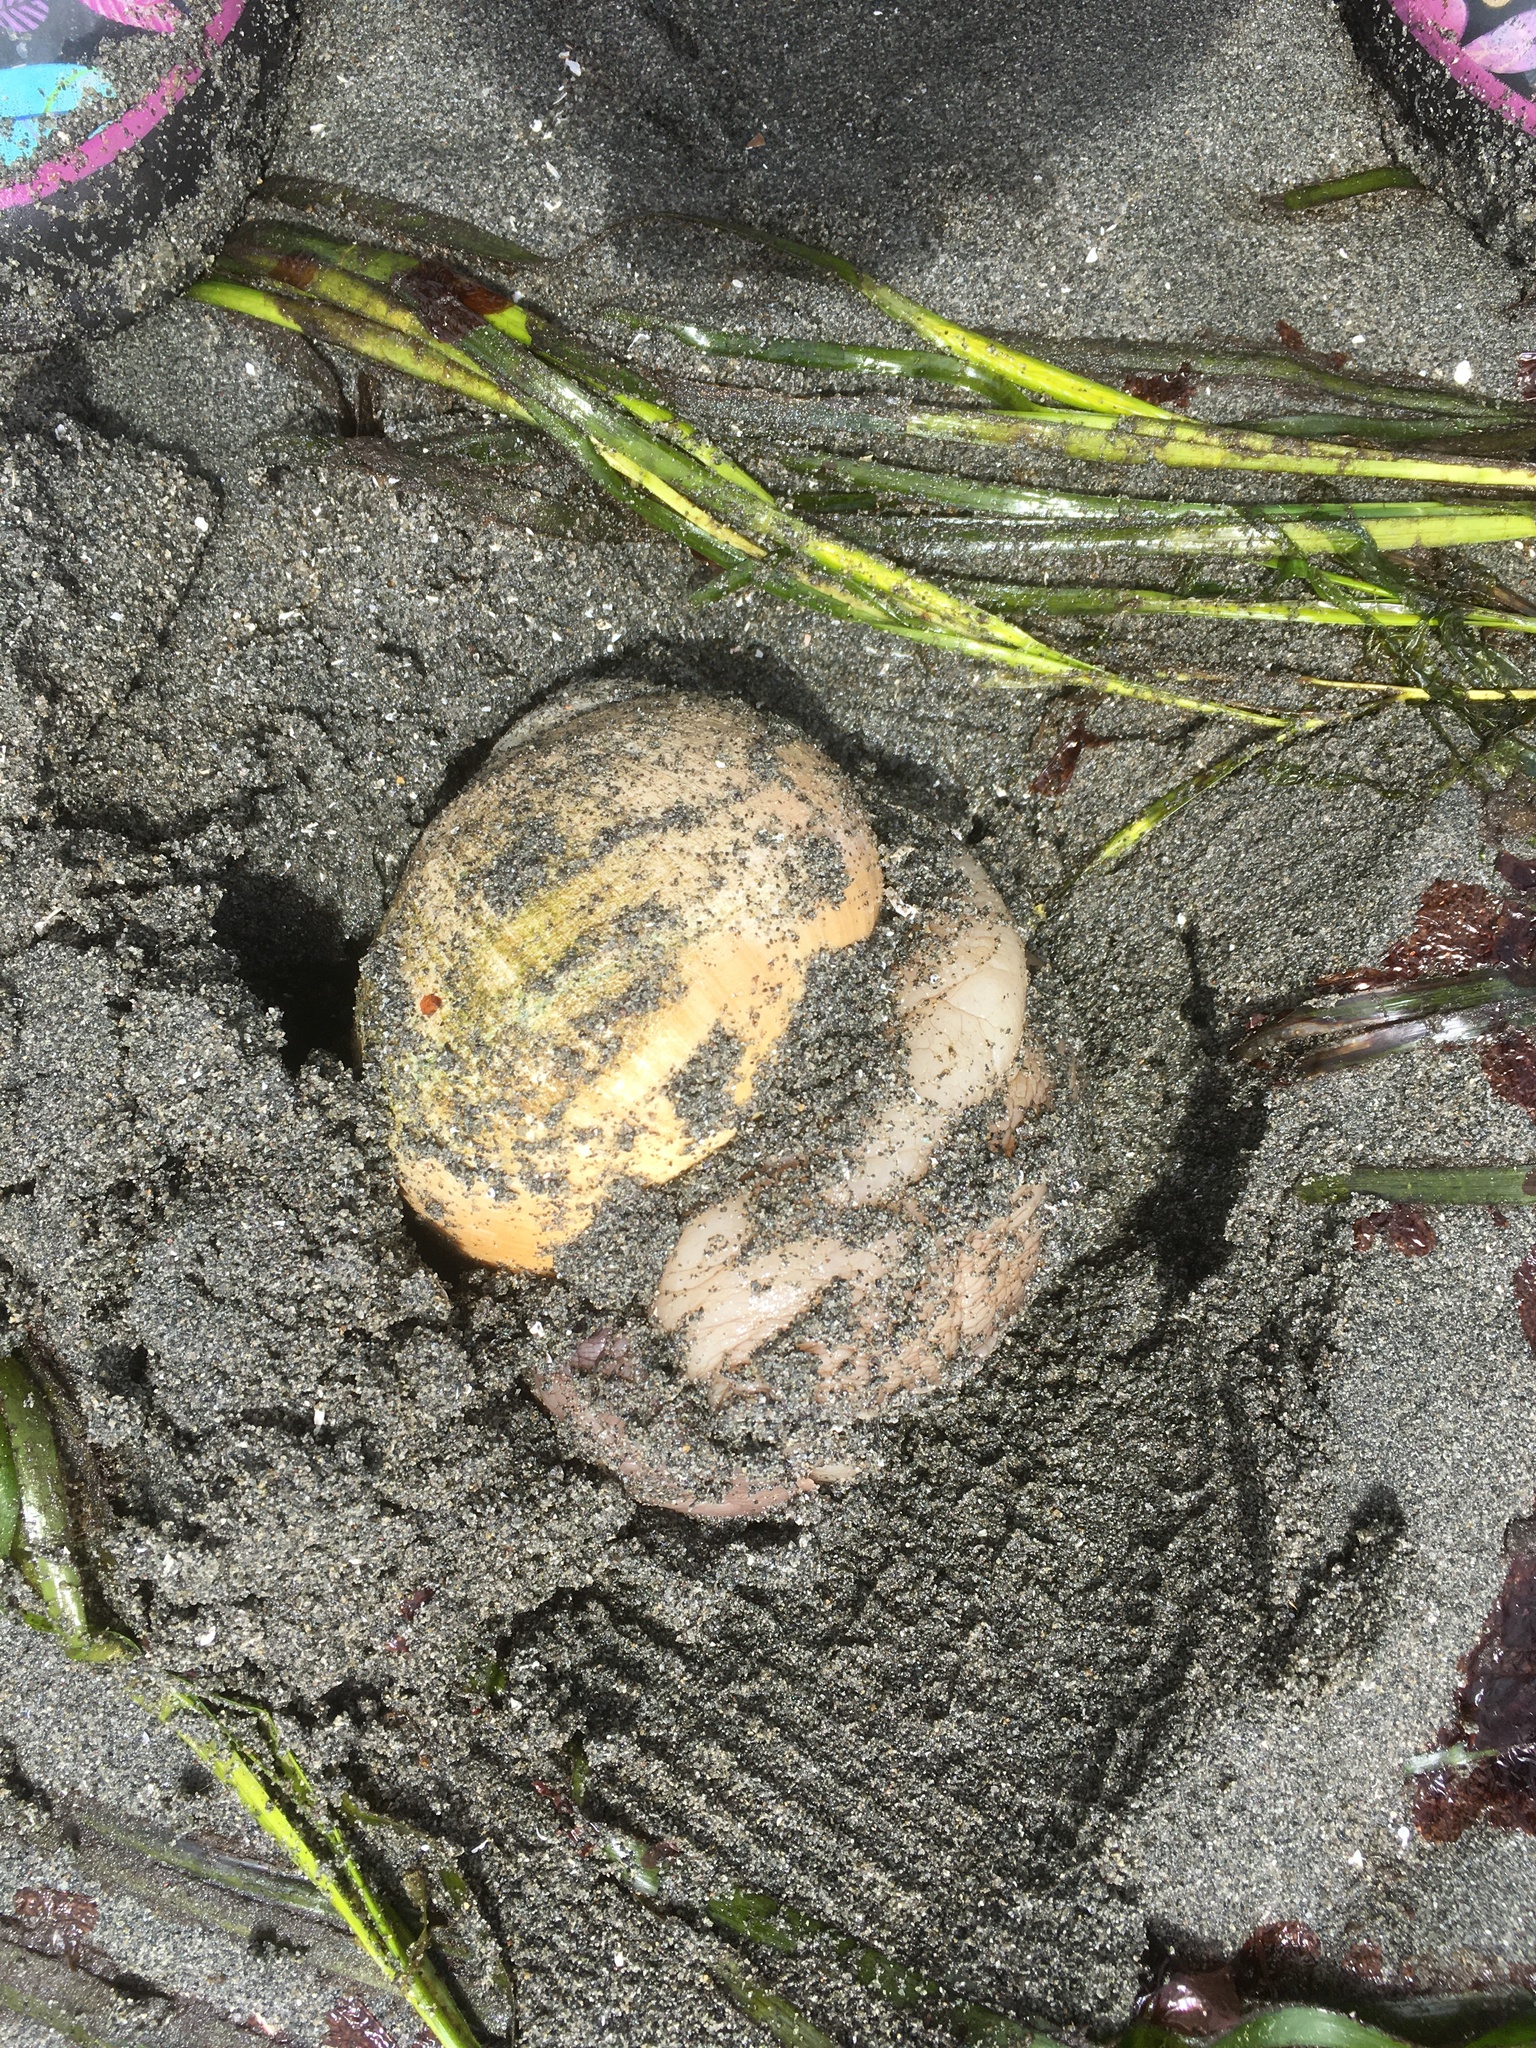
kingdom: Animalia
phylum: Mollusca
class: Gastropoda
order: Littorinimorpha
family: Naticidae
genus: Neverita
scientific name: Neverita lewisii
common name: Lewis' moonsnail
